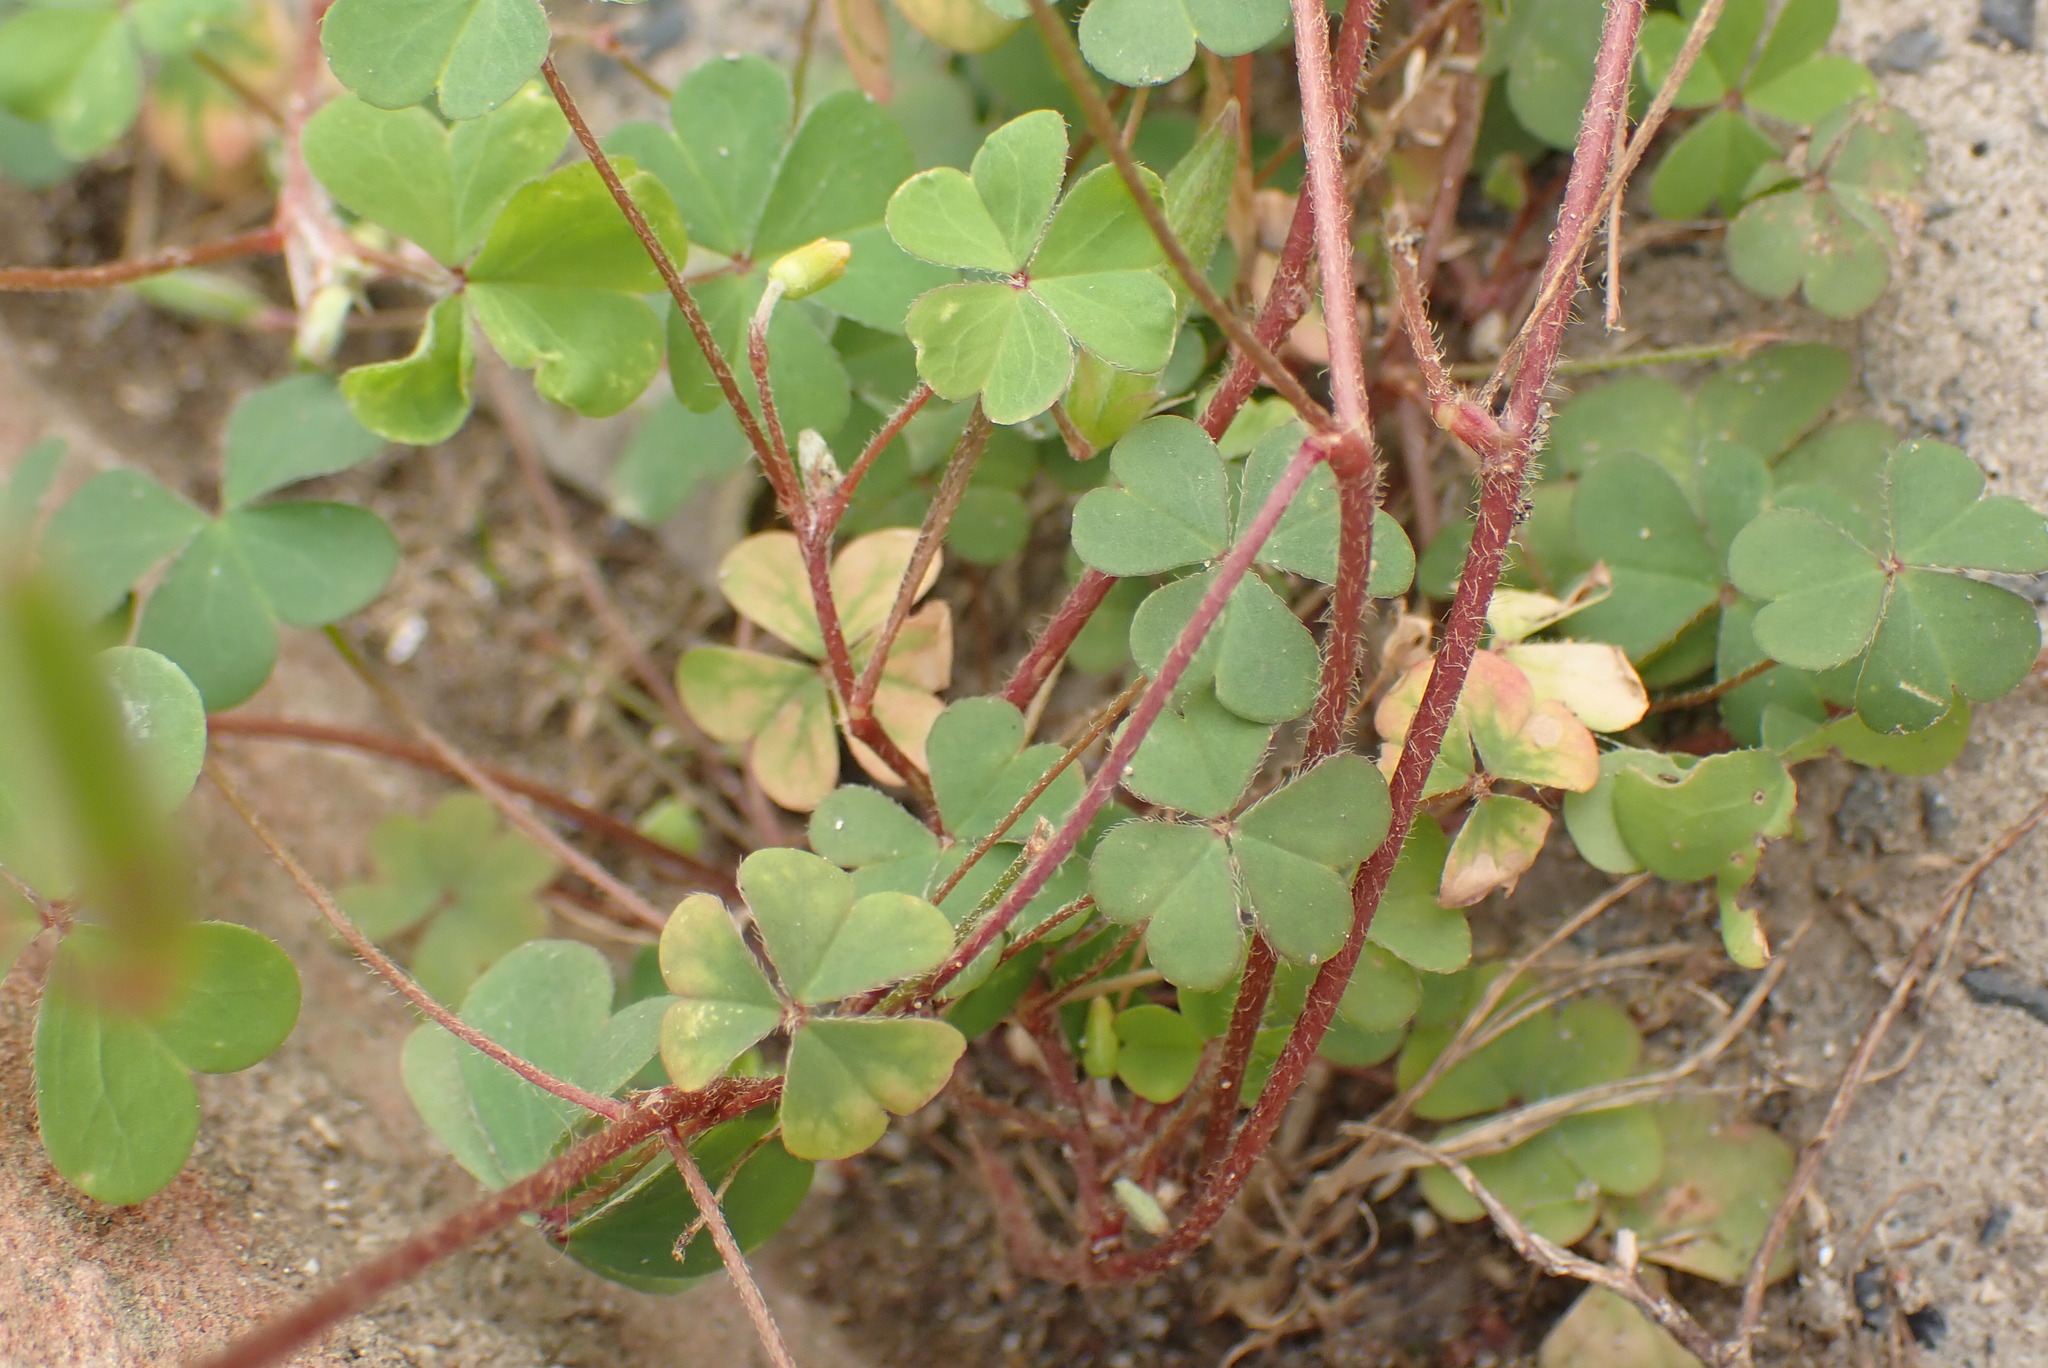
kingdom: Plantae
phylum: Tracheophyta
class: Magnoliopsida
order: Oxalidales
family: Oxalidaceae
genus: Oxalis
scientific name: Oxalis corniculata
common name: Procumbent yellow-sorrel
